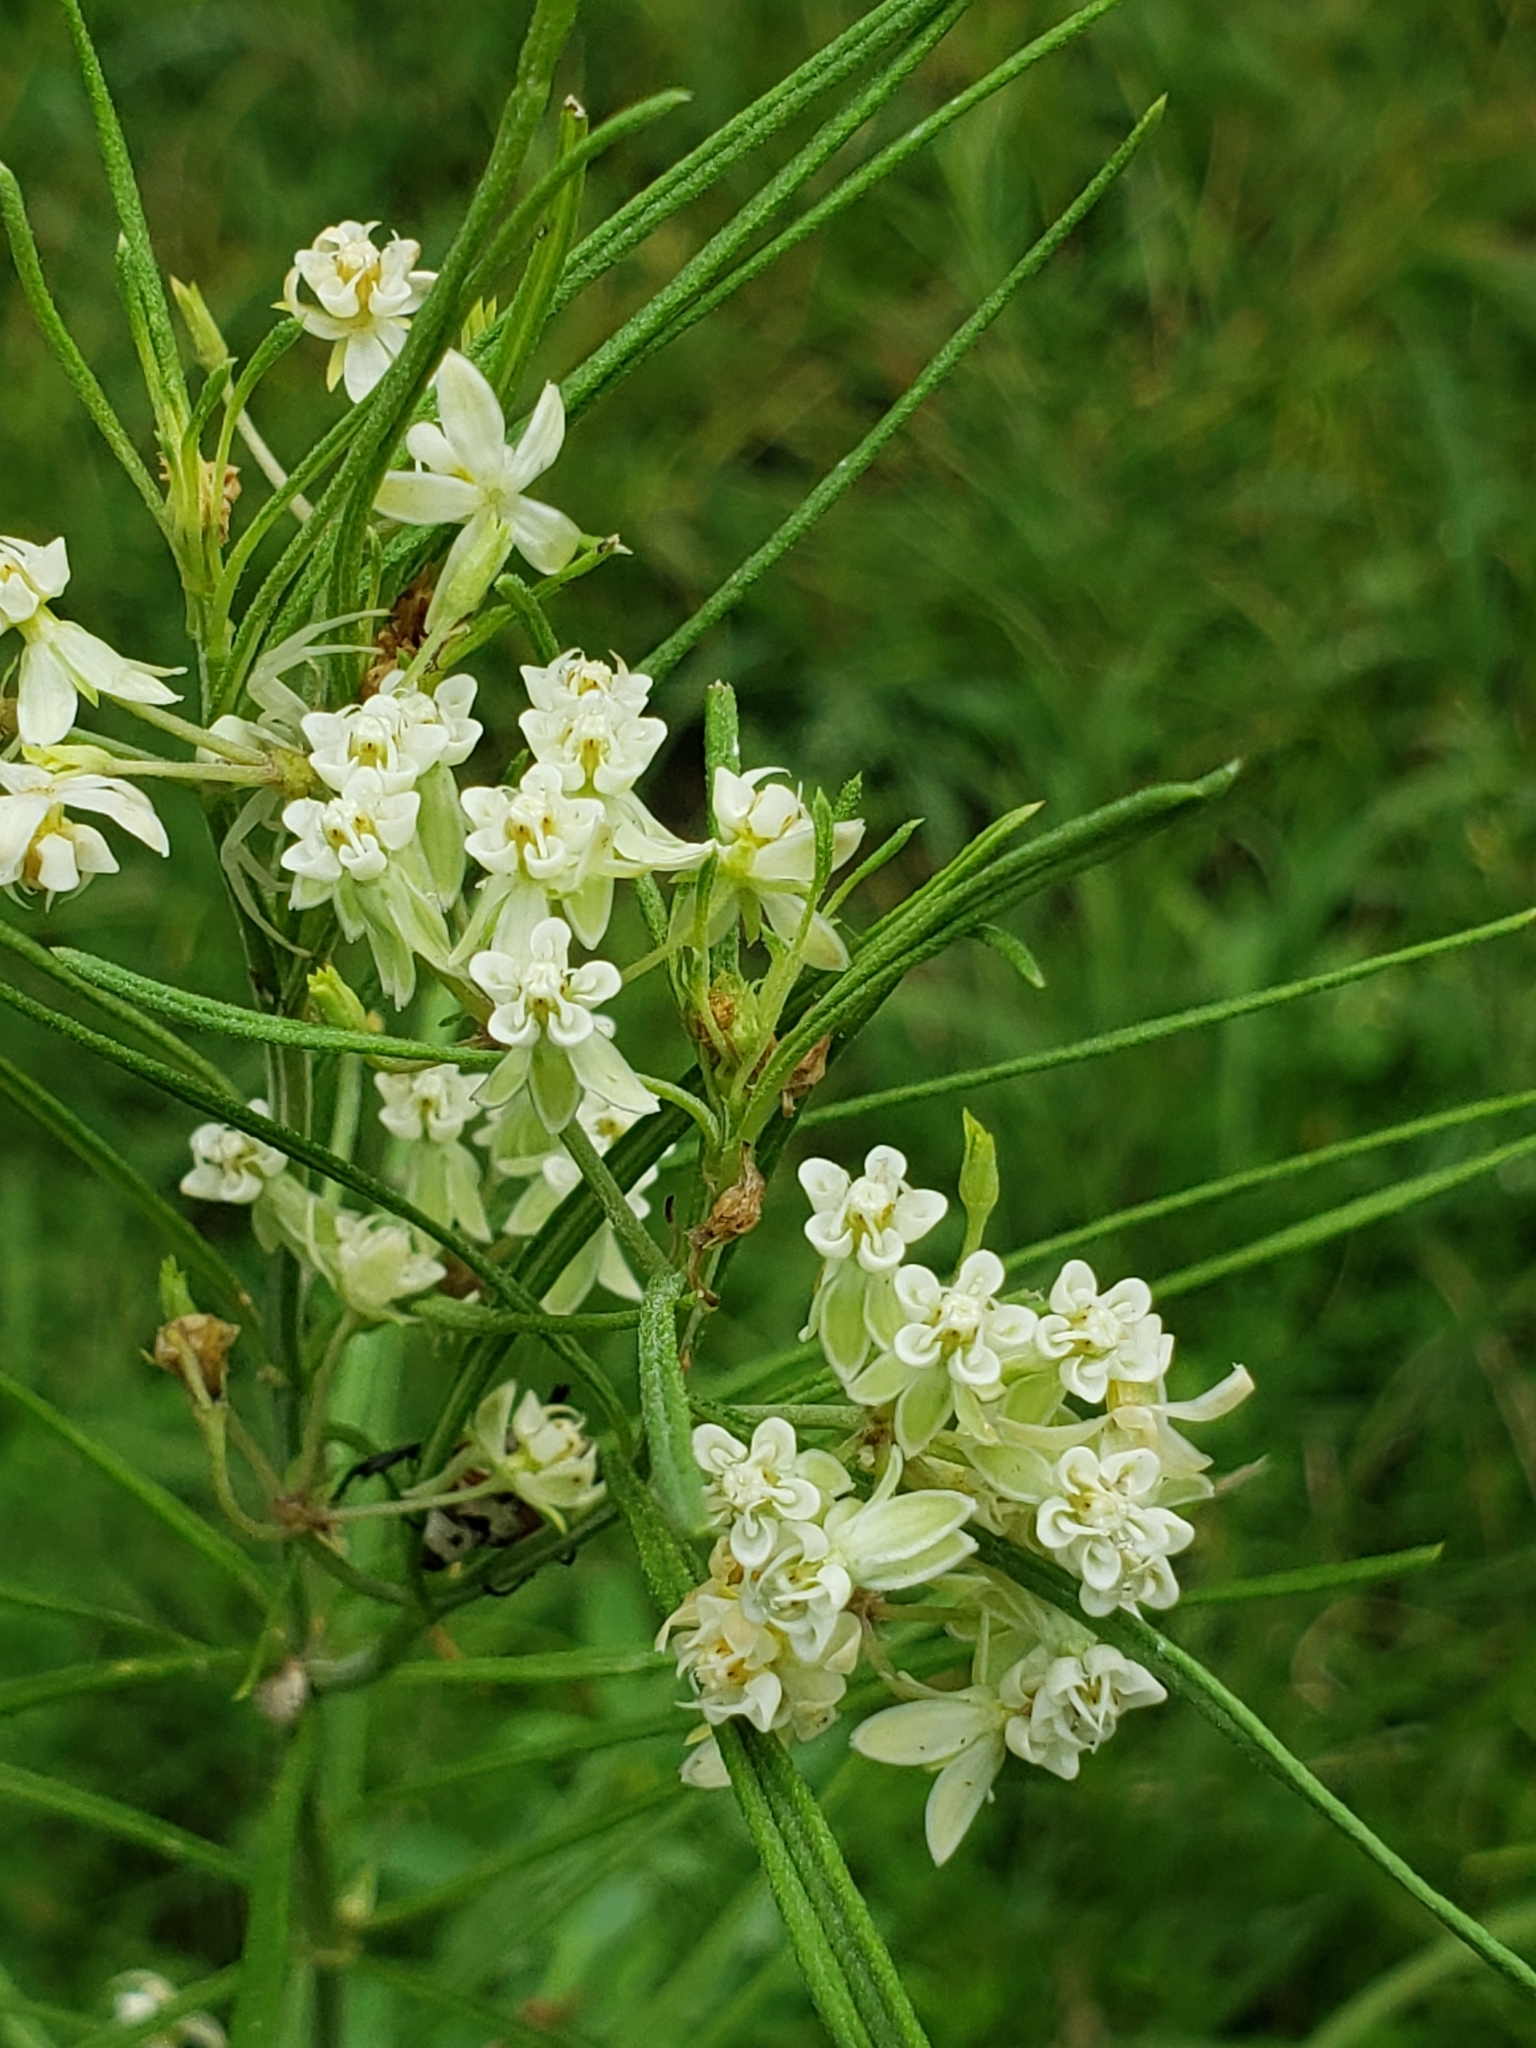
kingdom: Plantae
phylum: Tracheophyta
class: Magnoliopsida
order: Gentianales
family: Apocynaceae
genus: Asclepias
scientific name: Asclepias verticillata
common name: Eastern whorled milkweed
